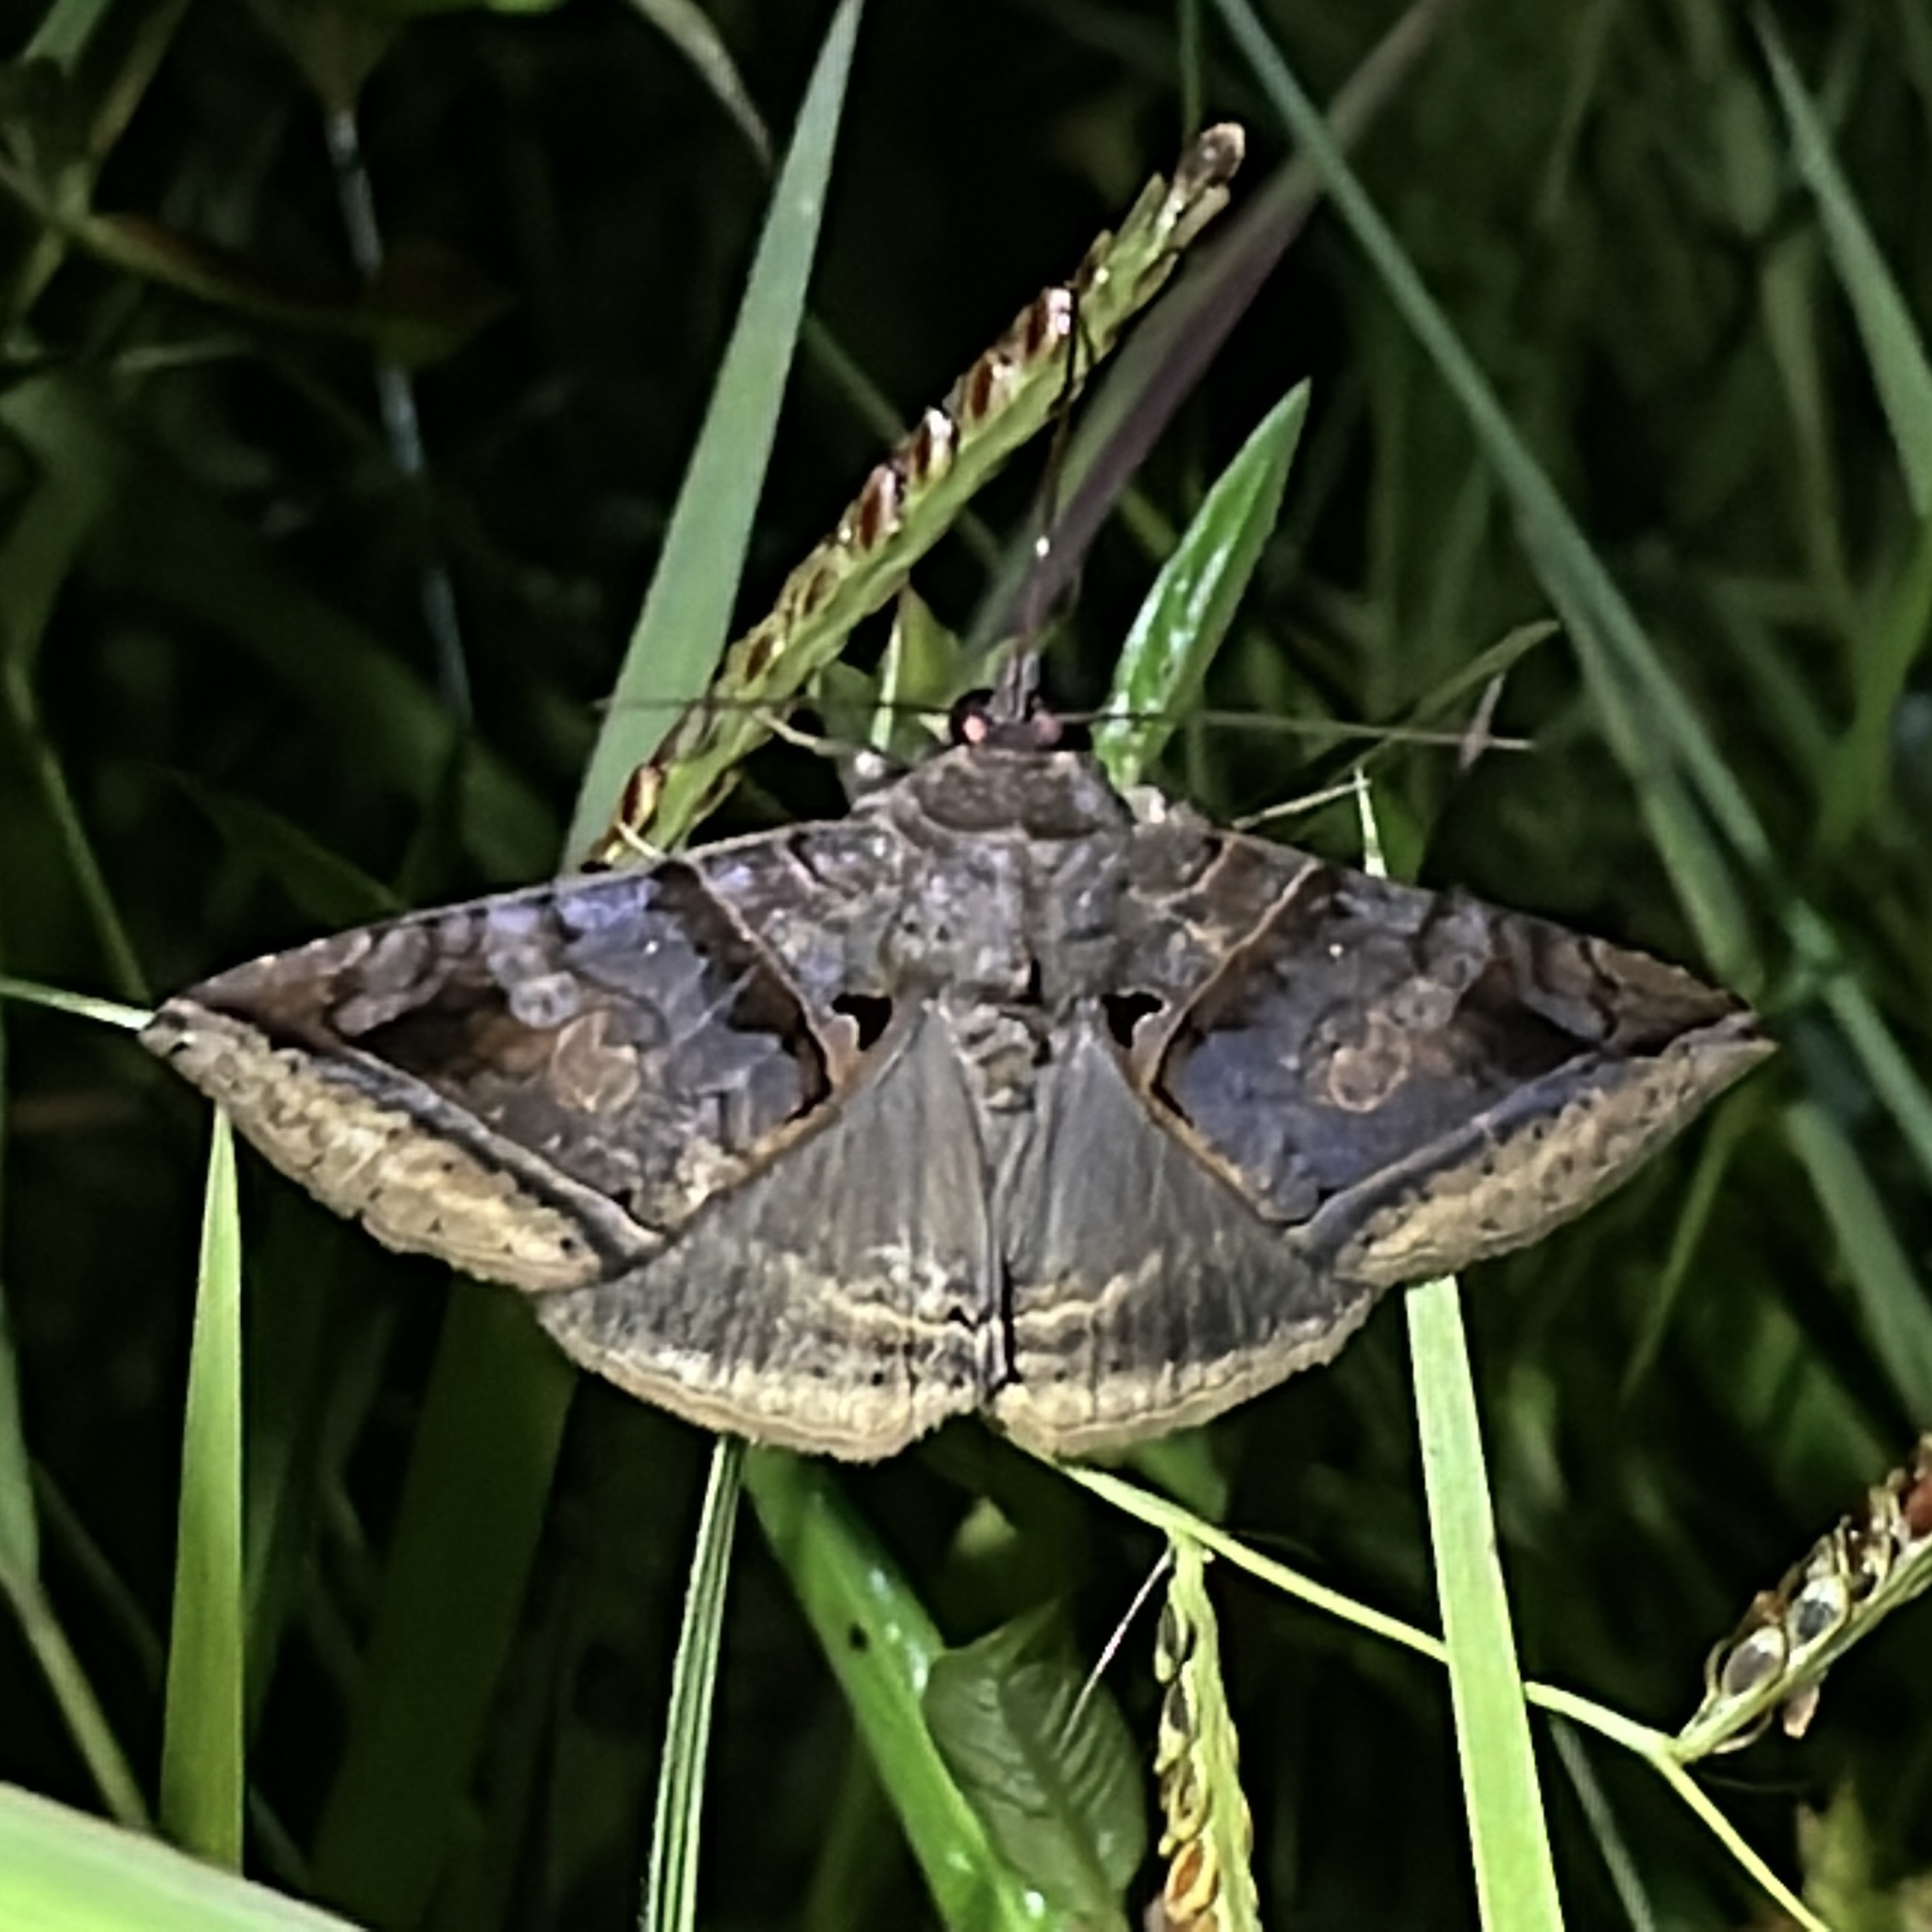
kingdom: Animalia
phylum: Arthropoda
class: Insecta
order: Lepidoptera
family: Erebidae
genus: Celiptera
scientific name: Celiptera levina
